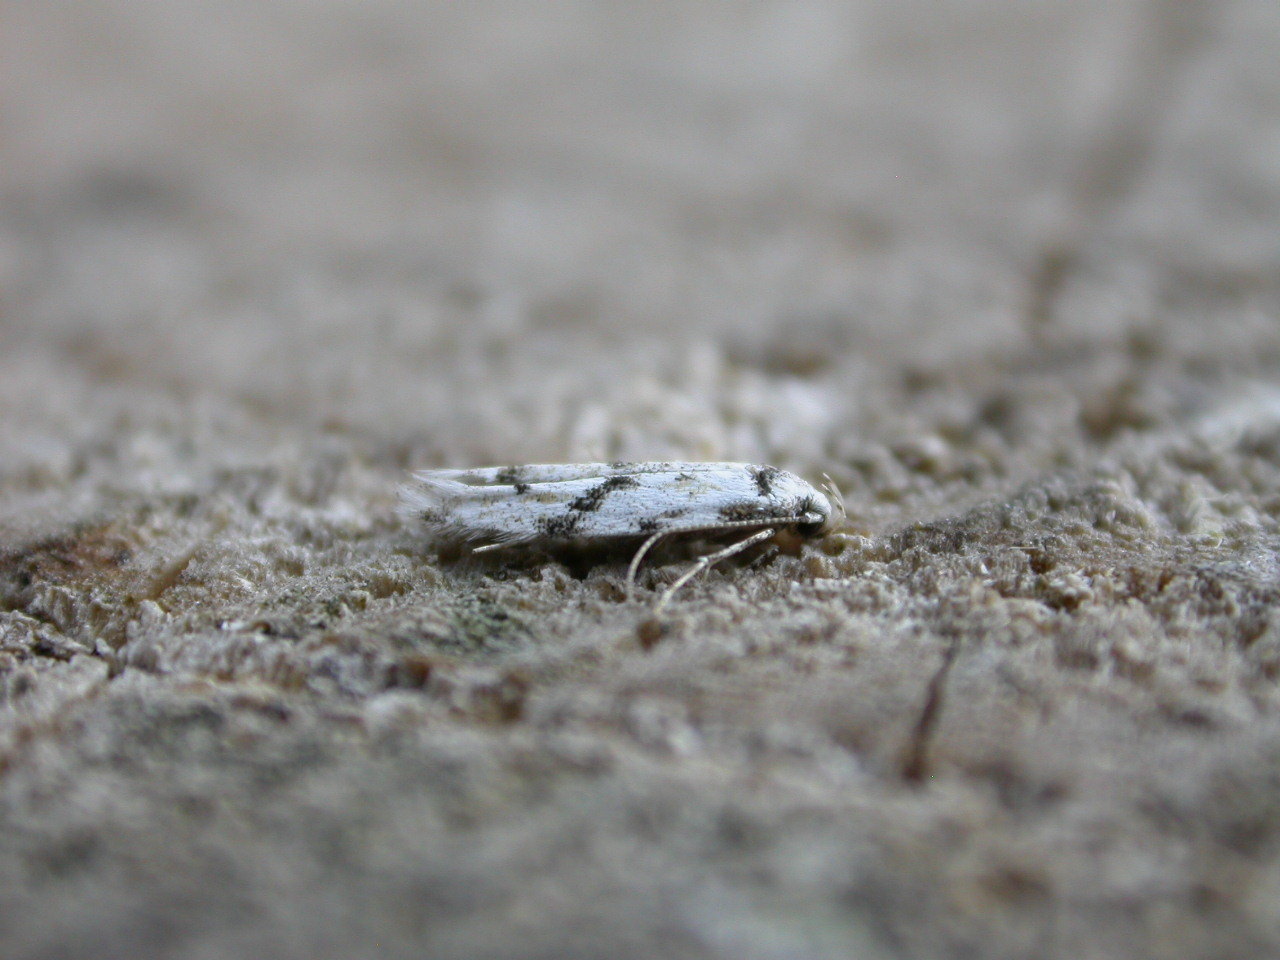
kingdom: Animalia
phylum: Arthropoda
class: Insecta
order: Lepidoptera
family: Gelechiidae
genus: Stenolechia
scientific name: Stenolechia gemmella
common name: Black-dotted groundling
